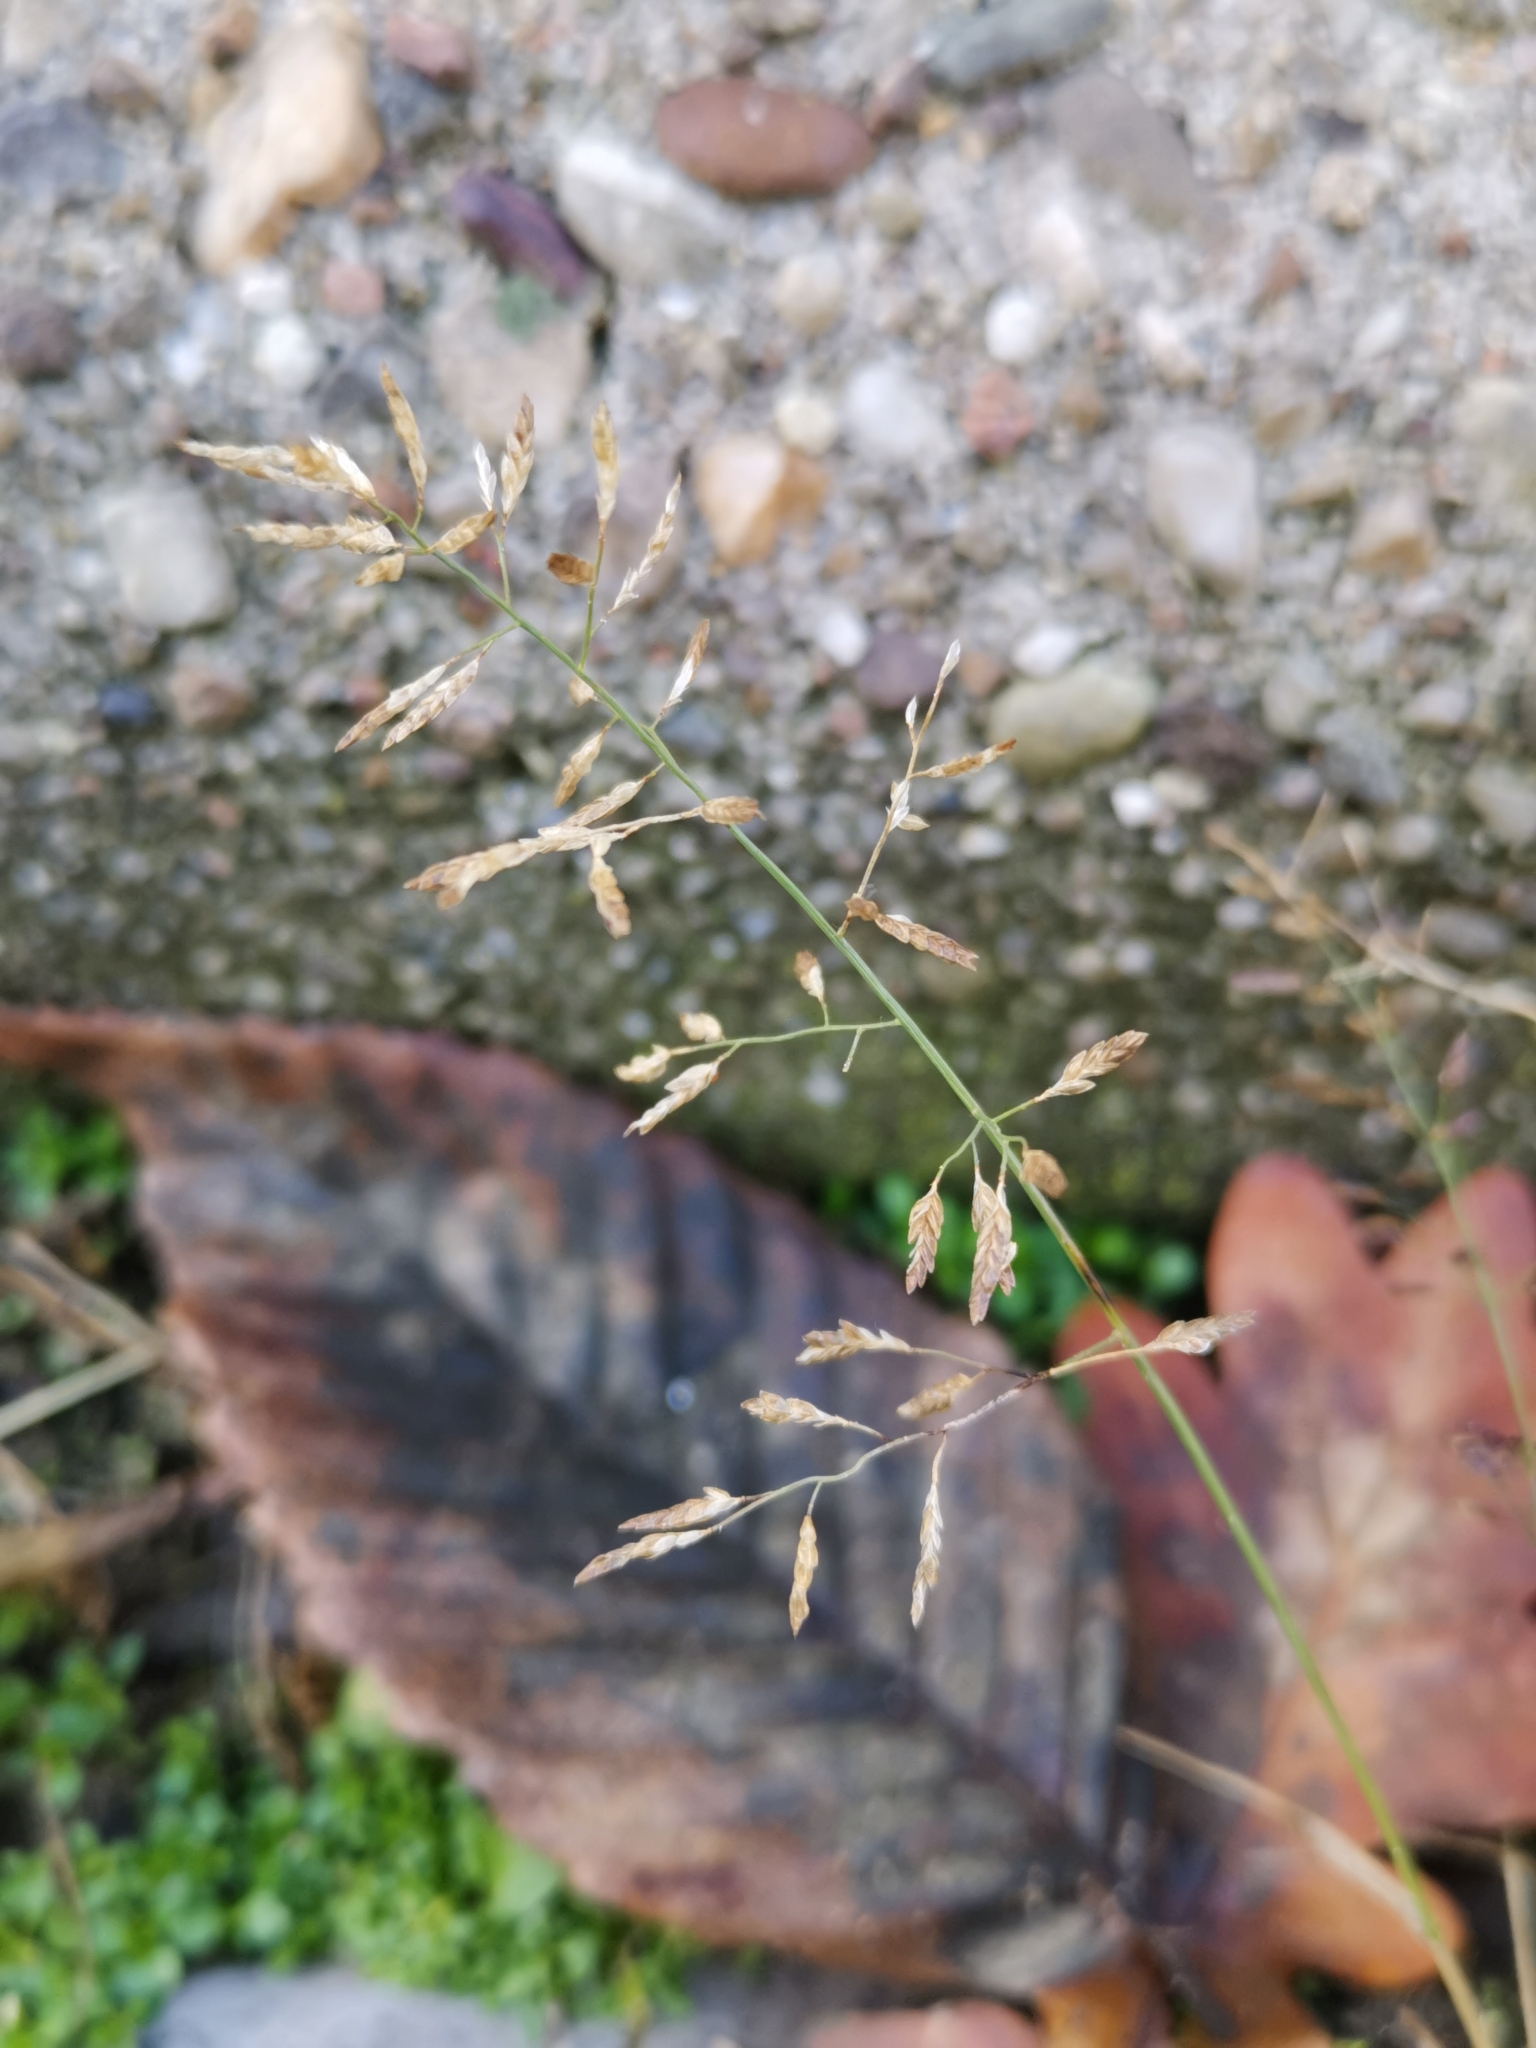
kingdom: Plantae
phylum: Tracheophyta
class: Liliopsida
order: Poales
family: Poaceae
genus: Eragrostis
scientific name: Eragrostis minor
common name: Small love-grass
